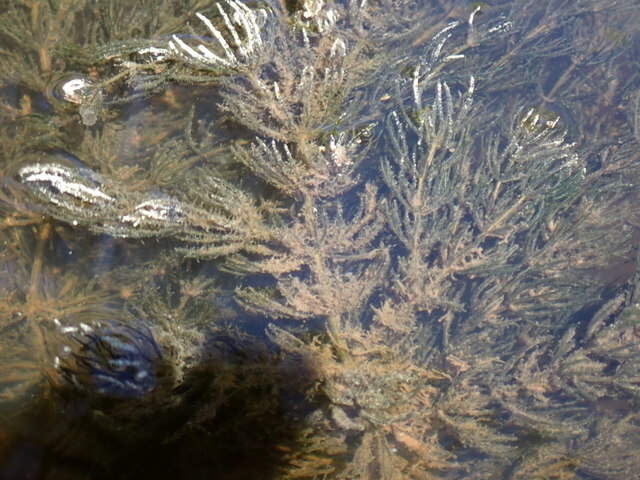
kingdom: Plantae
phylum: Tracheophyta
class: Magnoliopsida
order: Ceratophyllales
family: Ceratophyllaceae
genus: Ceratophyllum
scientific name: Ceratophyllum demersum
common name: Rigid hornwort
